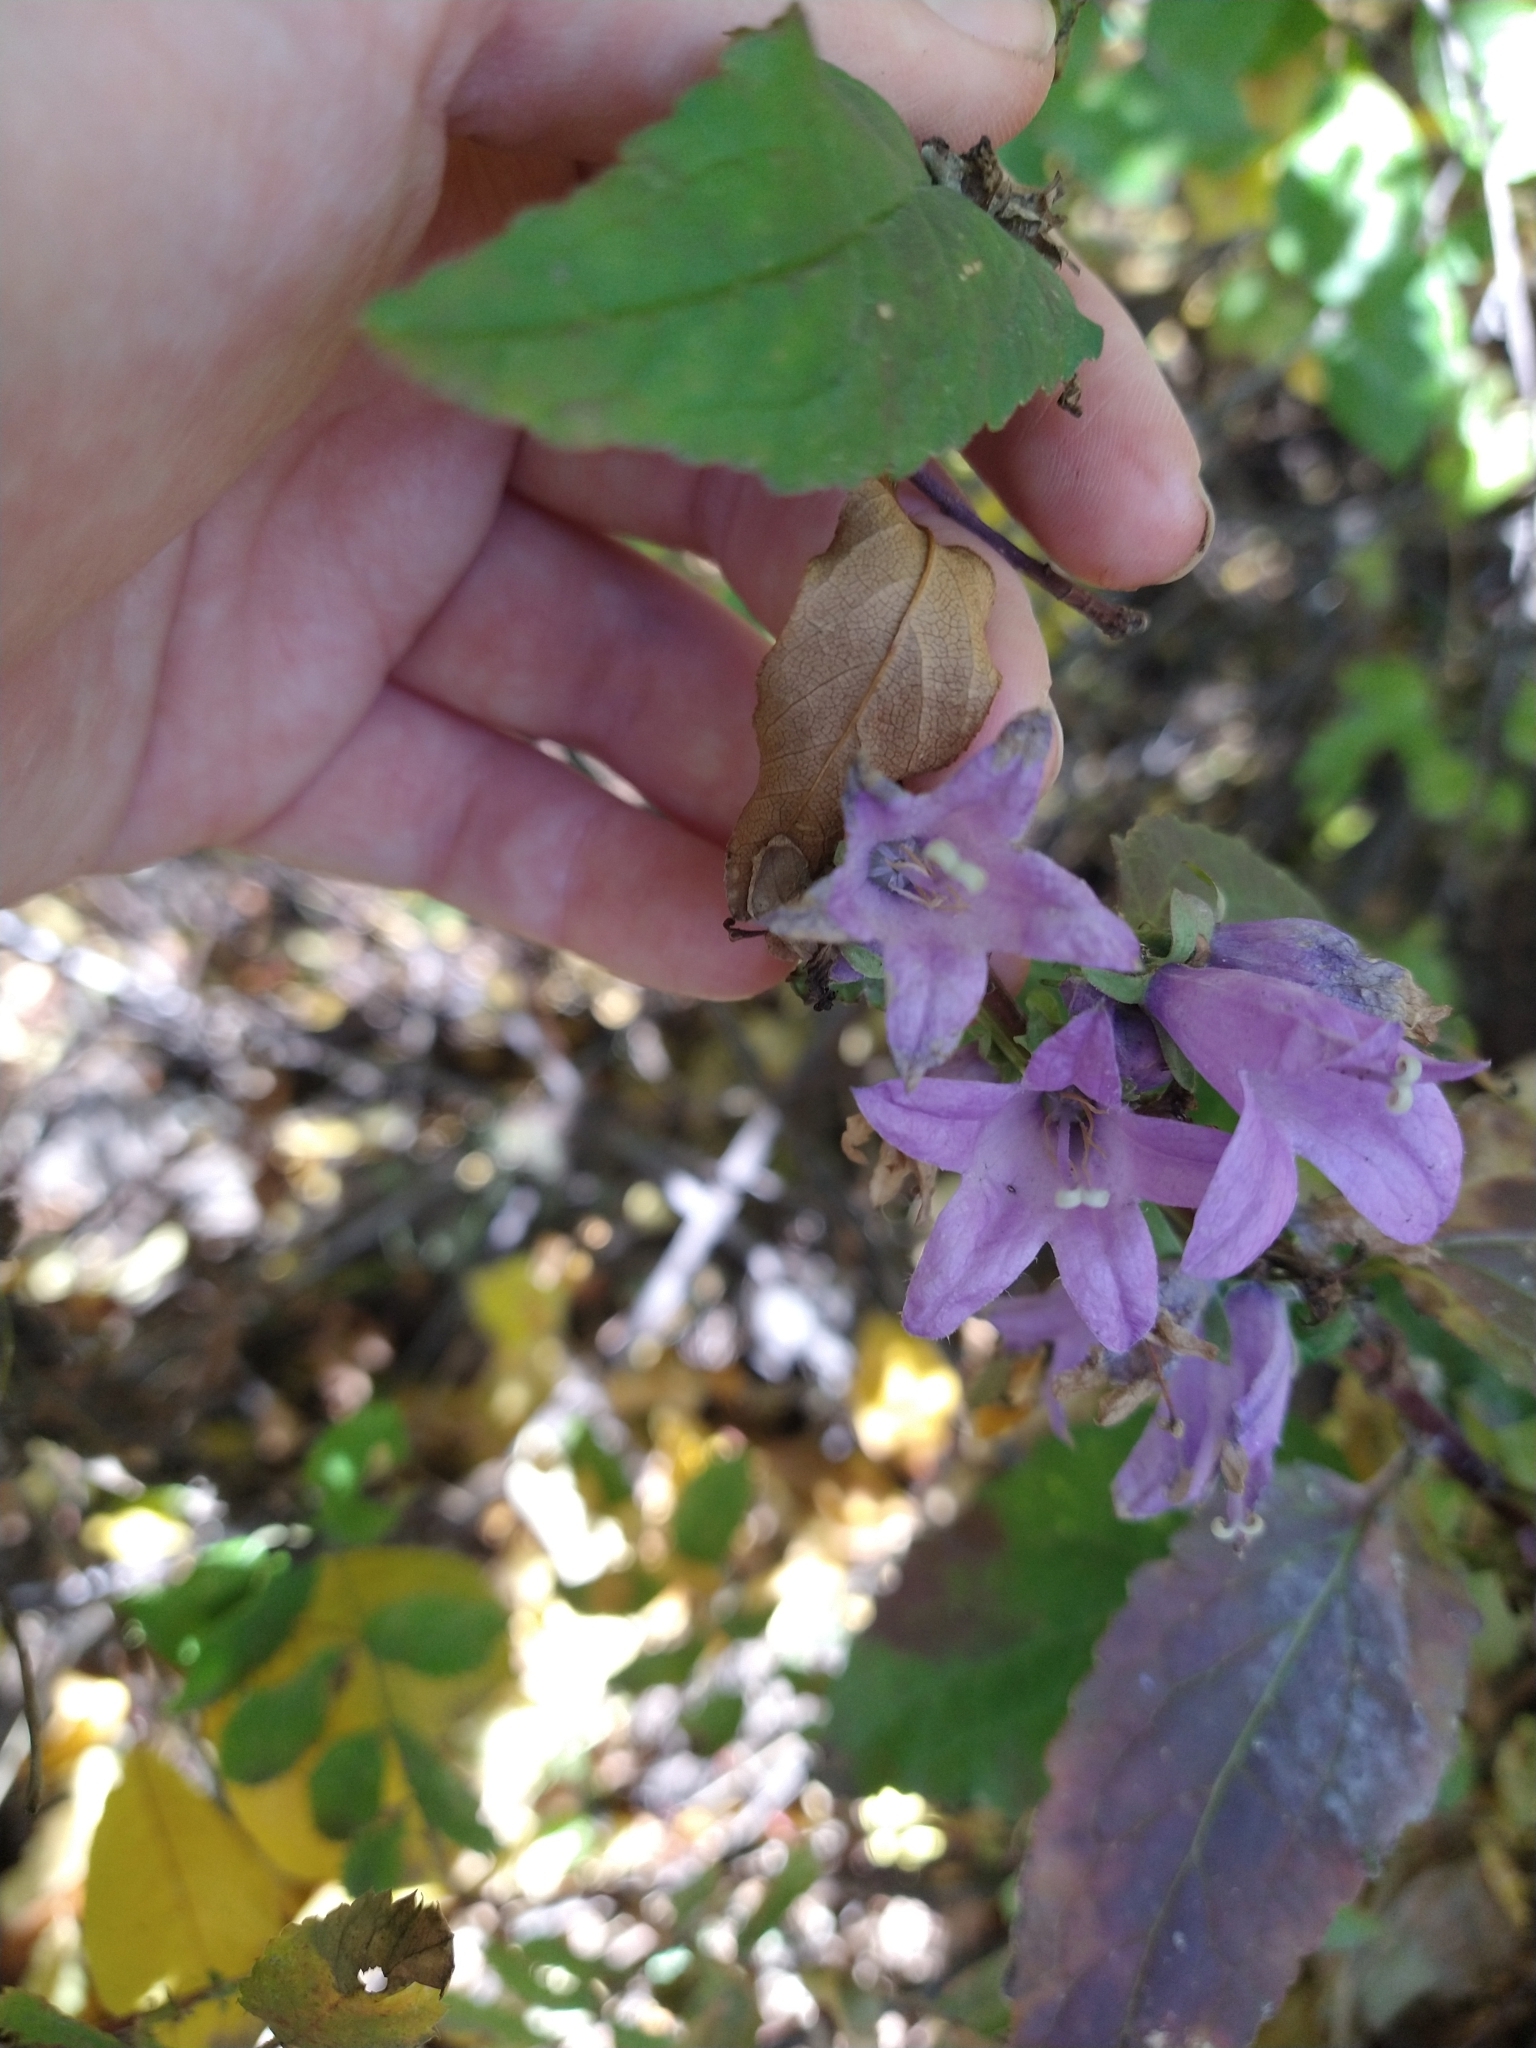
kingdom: Plantae
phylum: Tracheophyta
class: Magnoliopsida
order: Asterales
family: Campanulaceae
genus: Campanula
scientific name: Campanula rapunculoides
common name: Creeping bellflower
